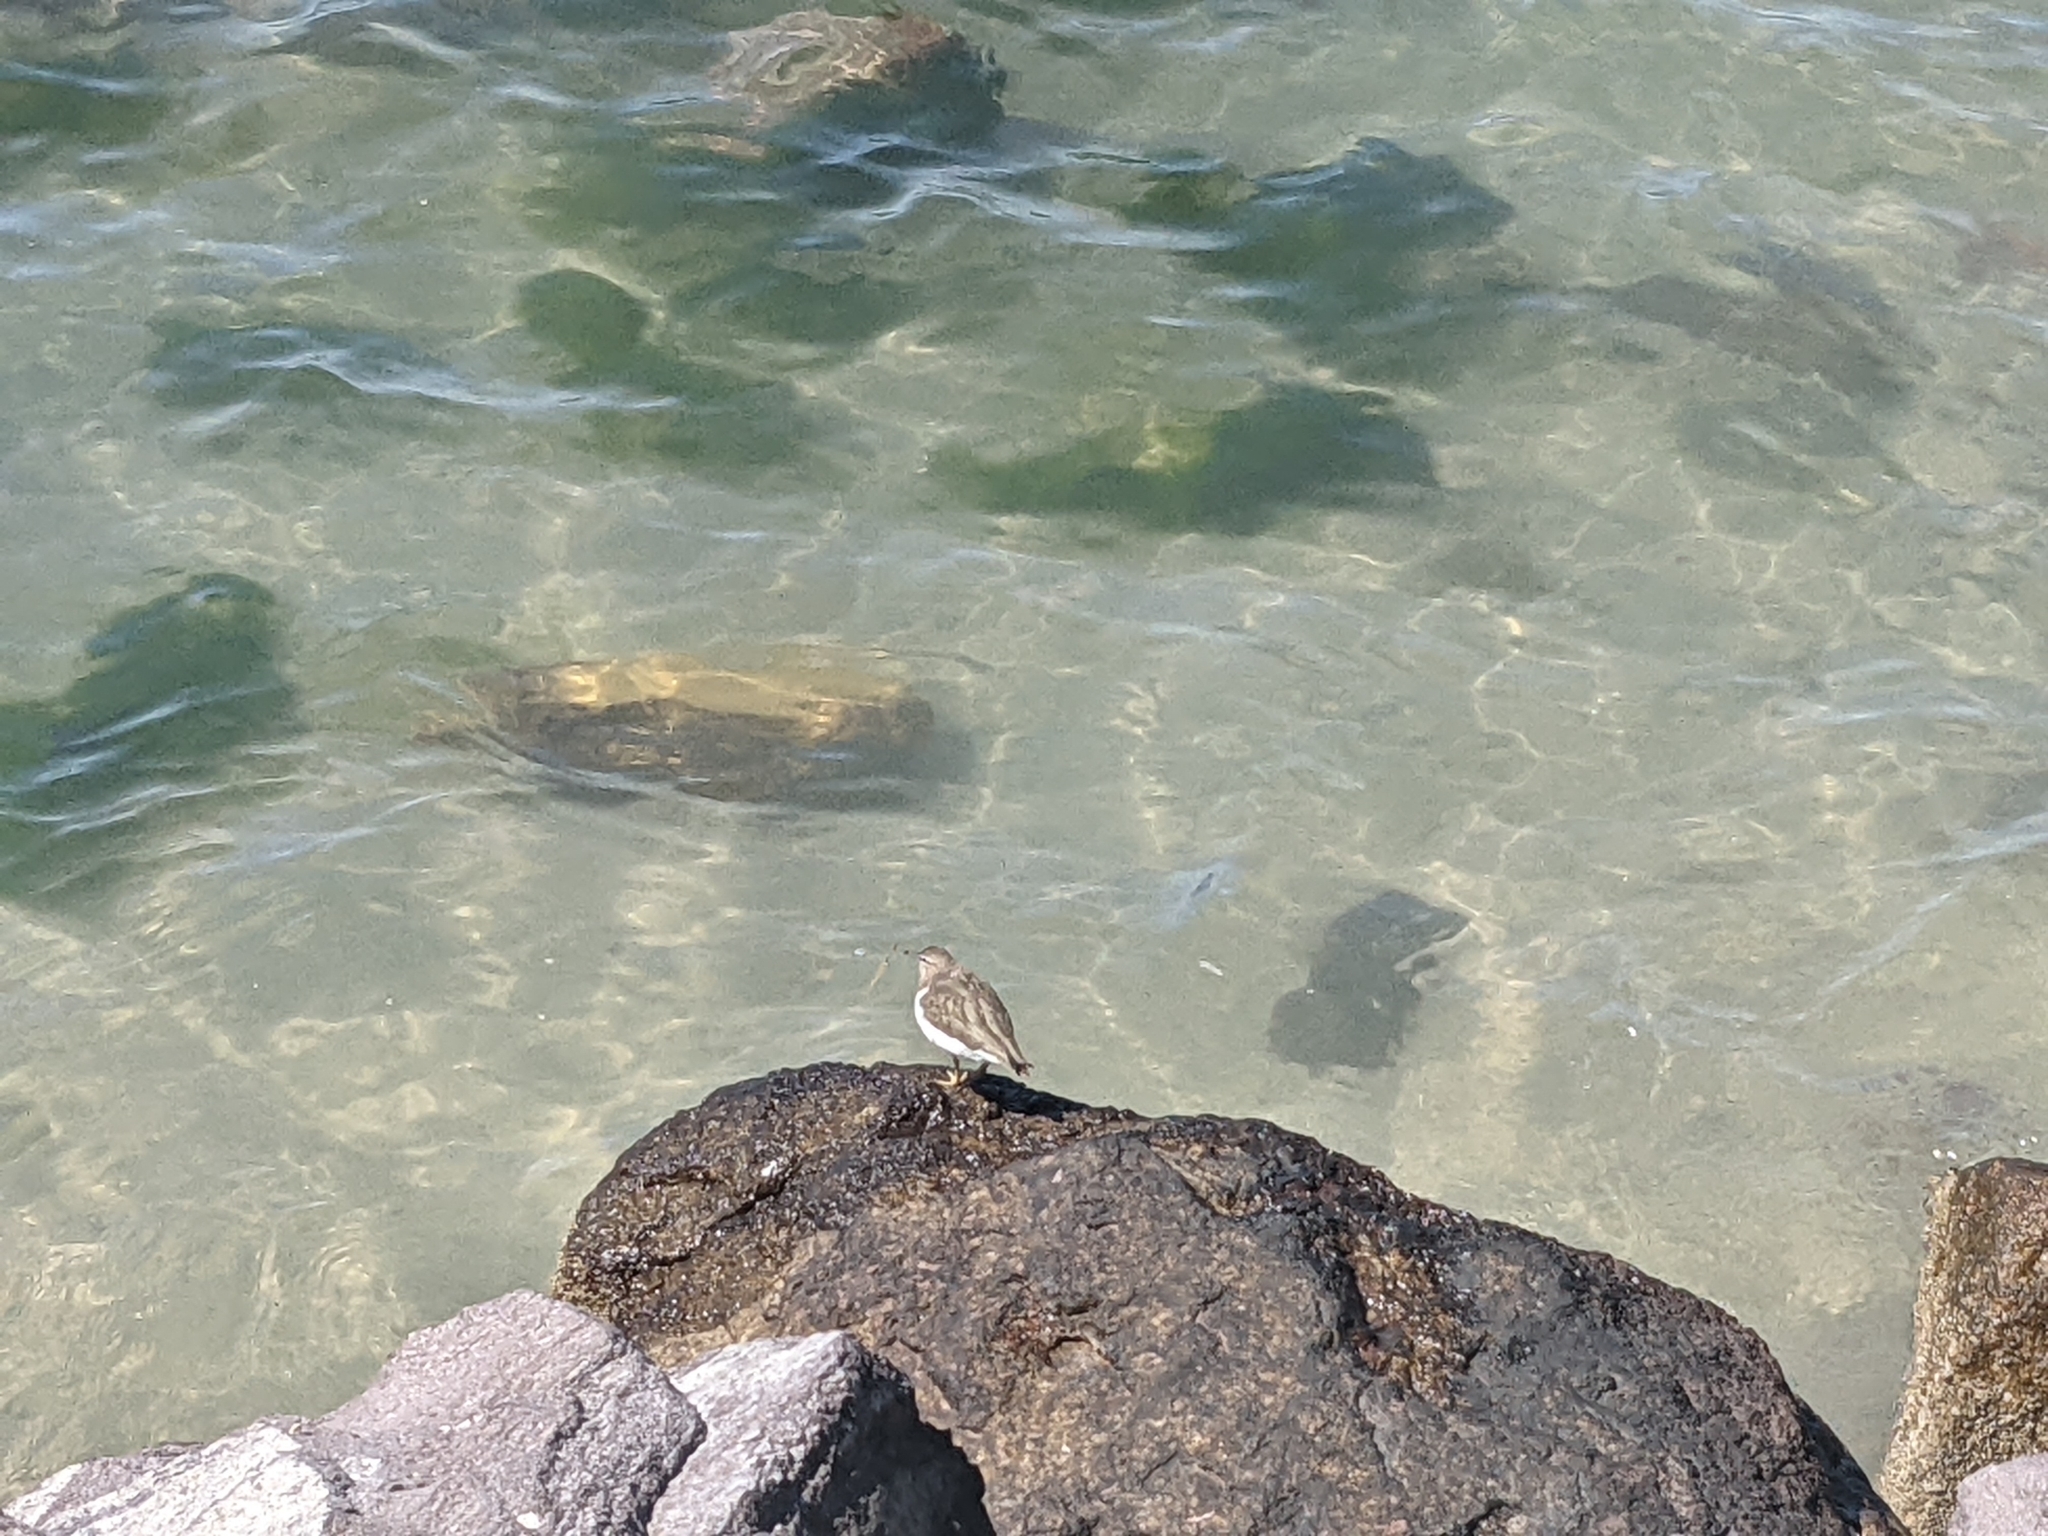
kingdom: Animalia
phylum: Chordata
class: Aves
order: Charadriiformes
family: Scolopacidae
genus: Actitis
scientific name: Actitis macularius
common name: Spotted sandpiper
